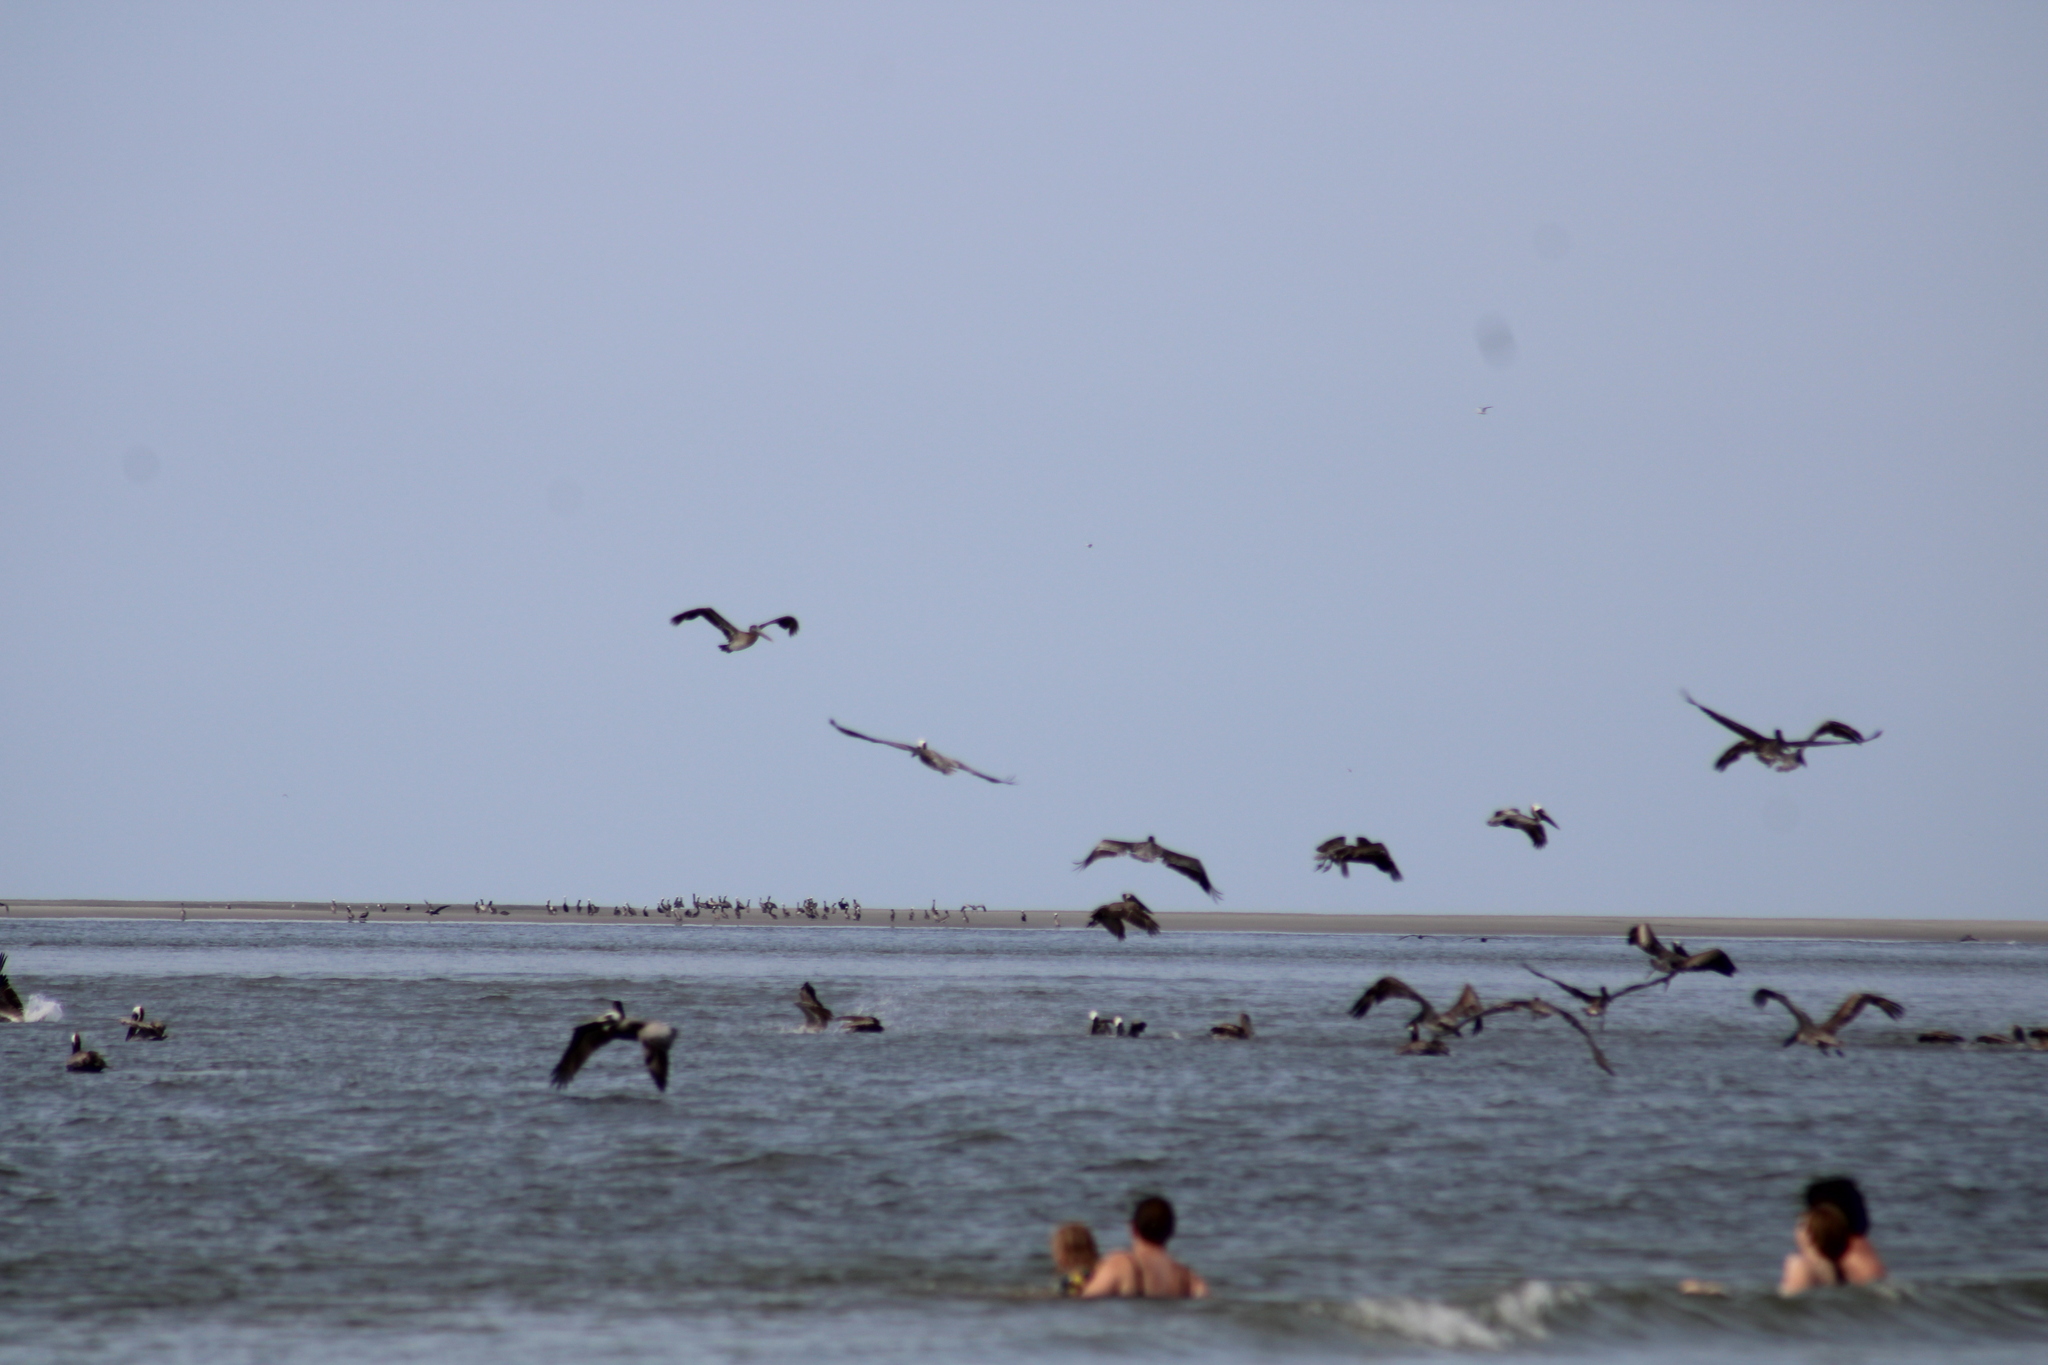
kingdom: Animalia
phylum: Chordata
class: Aves
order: Pelecaniformes
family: Pelecanidae
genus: Pelecanus
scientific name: Pelecanus occidentalis
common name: Brown pelican
